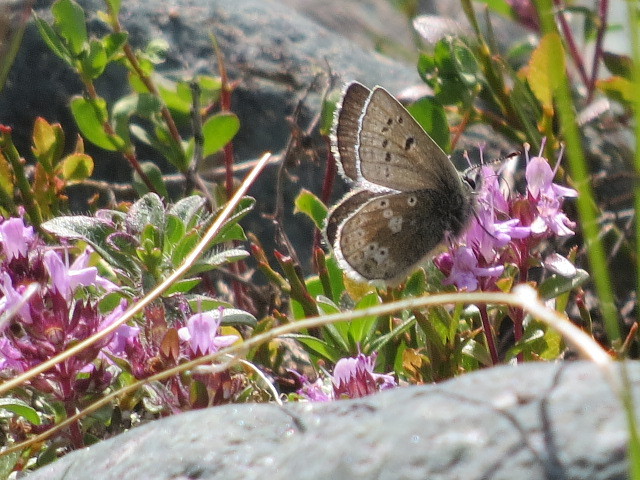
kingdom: Animalia
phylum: Arthropoda
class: Insecta
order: Lepidoptera
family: Lycaenidae
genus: Agriades
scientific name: Agriades glandon
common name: Glandon blue
